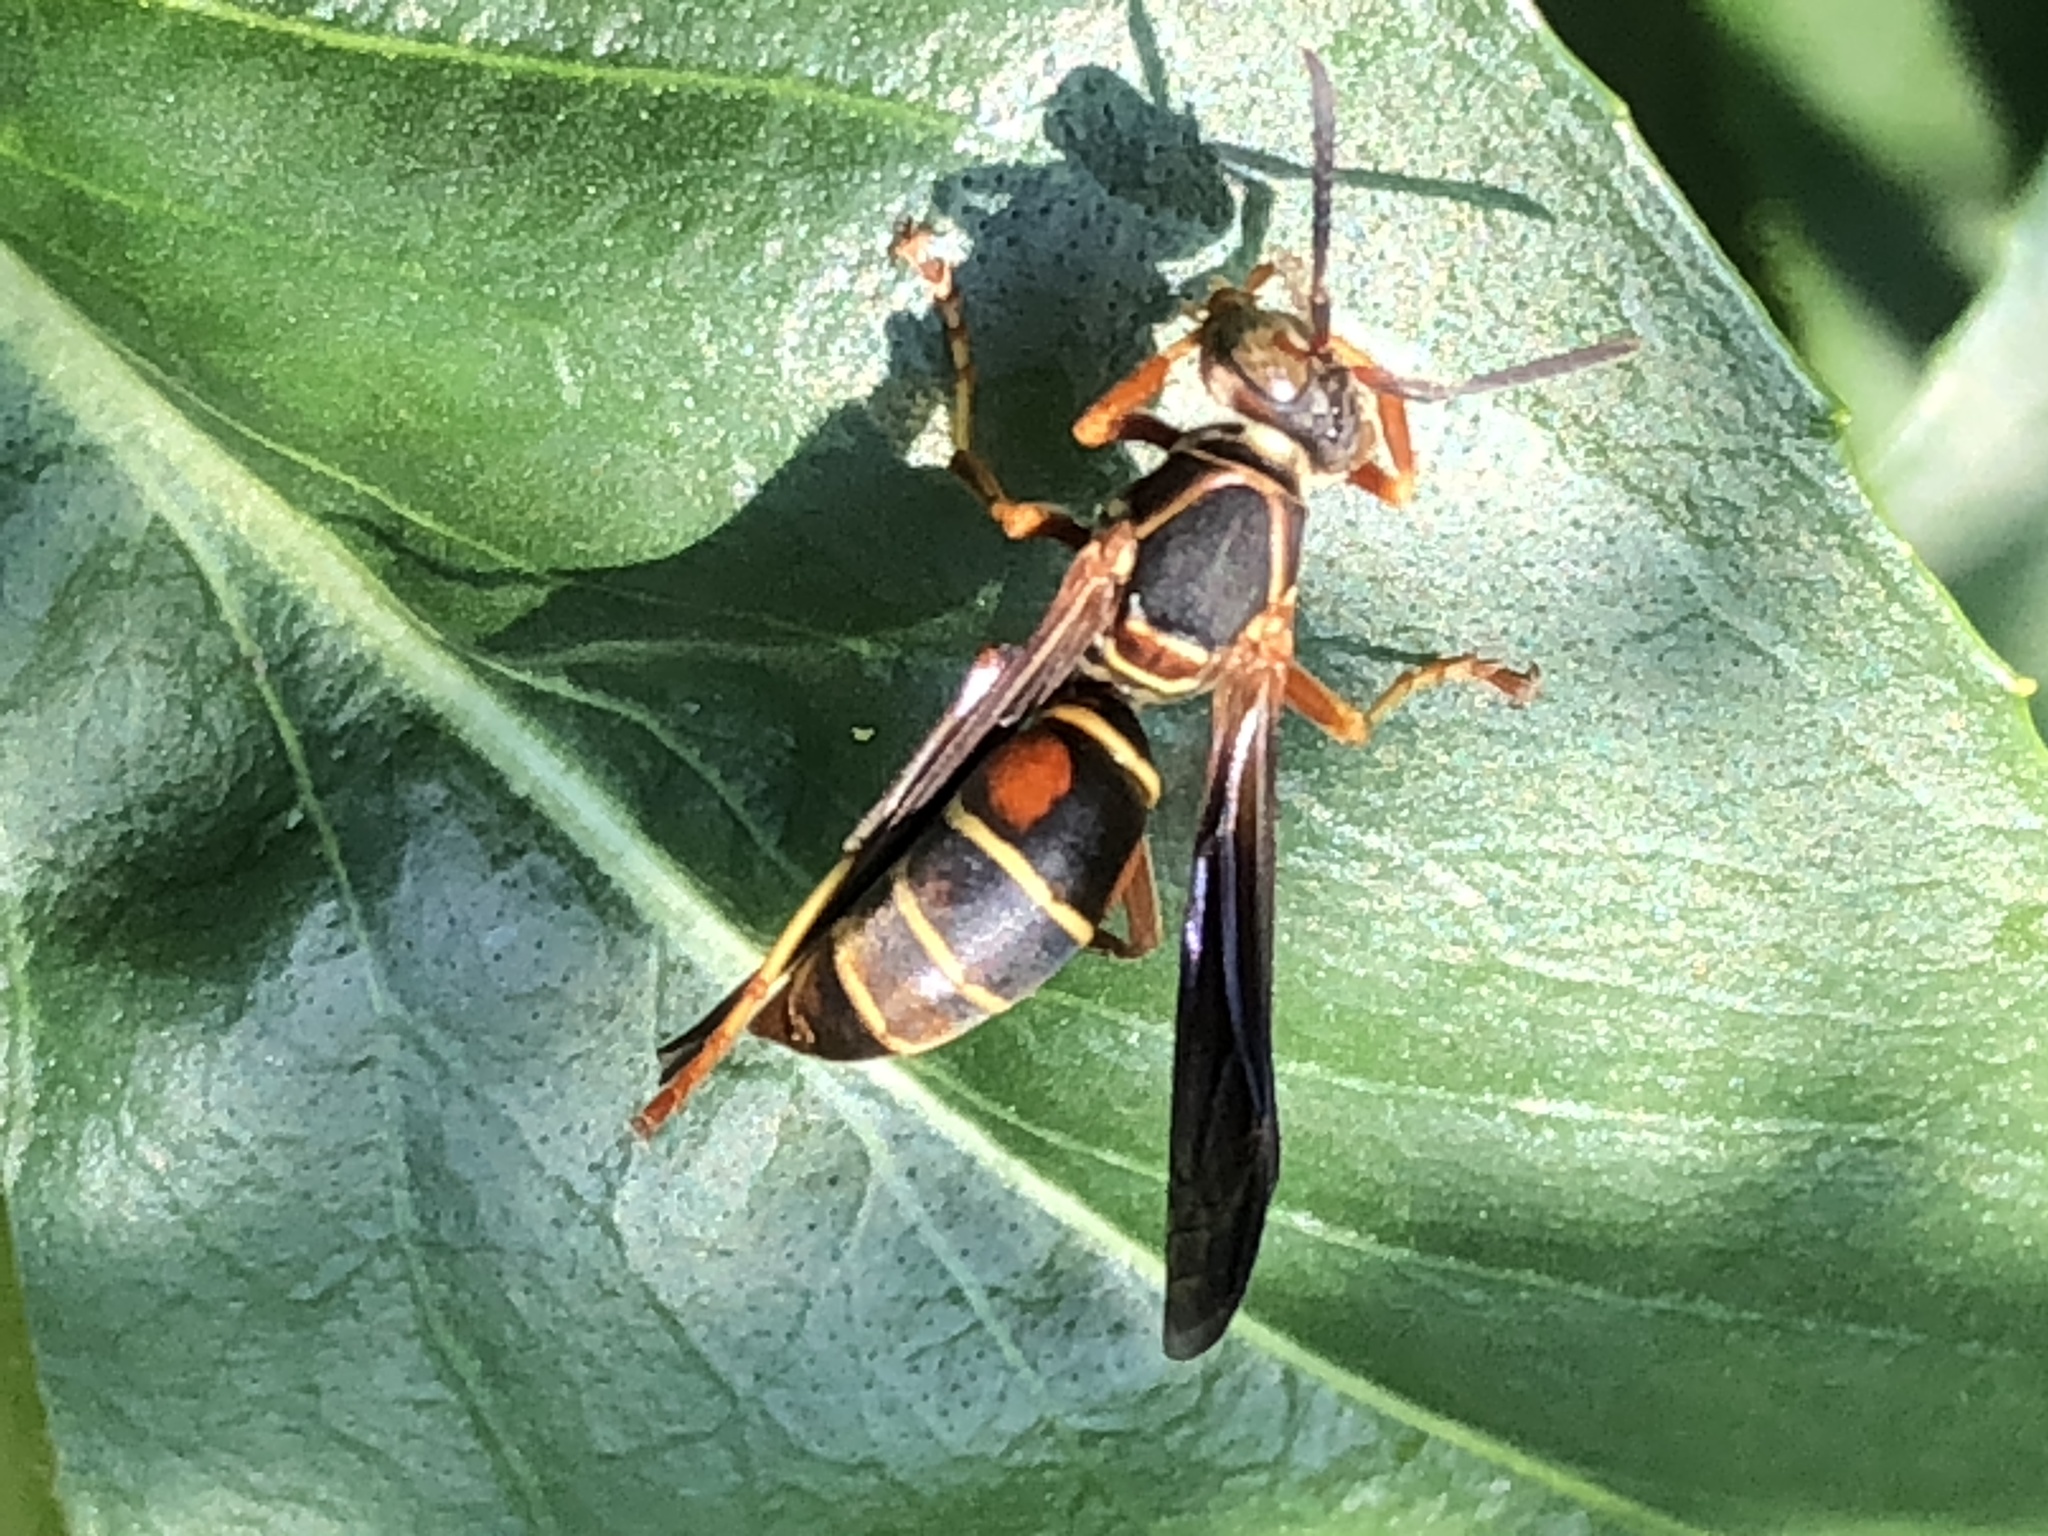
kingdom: Animalia
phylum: Arthropoda
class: Insecta
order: Hymenoptera
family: Eumenidae
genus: Polistes
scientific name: Polistes fuscatus
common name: Dark paper wasp
